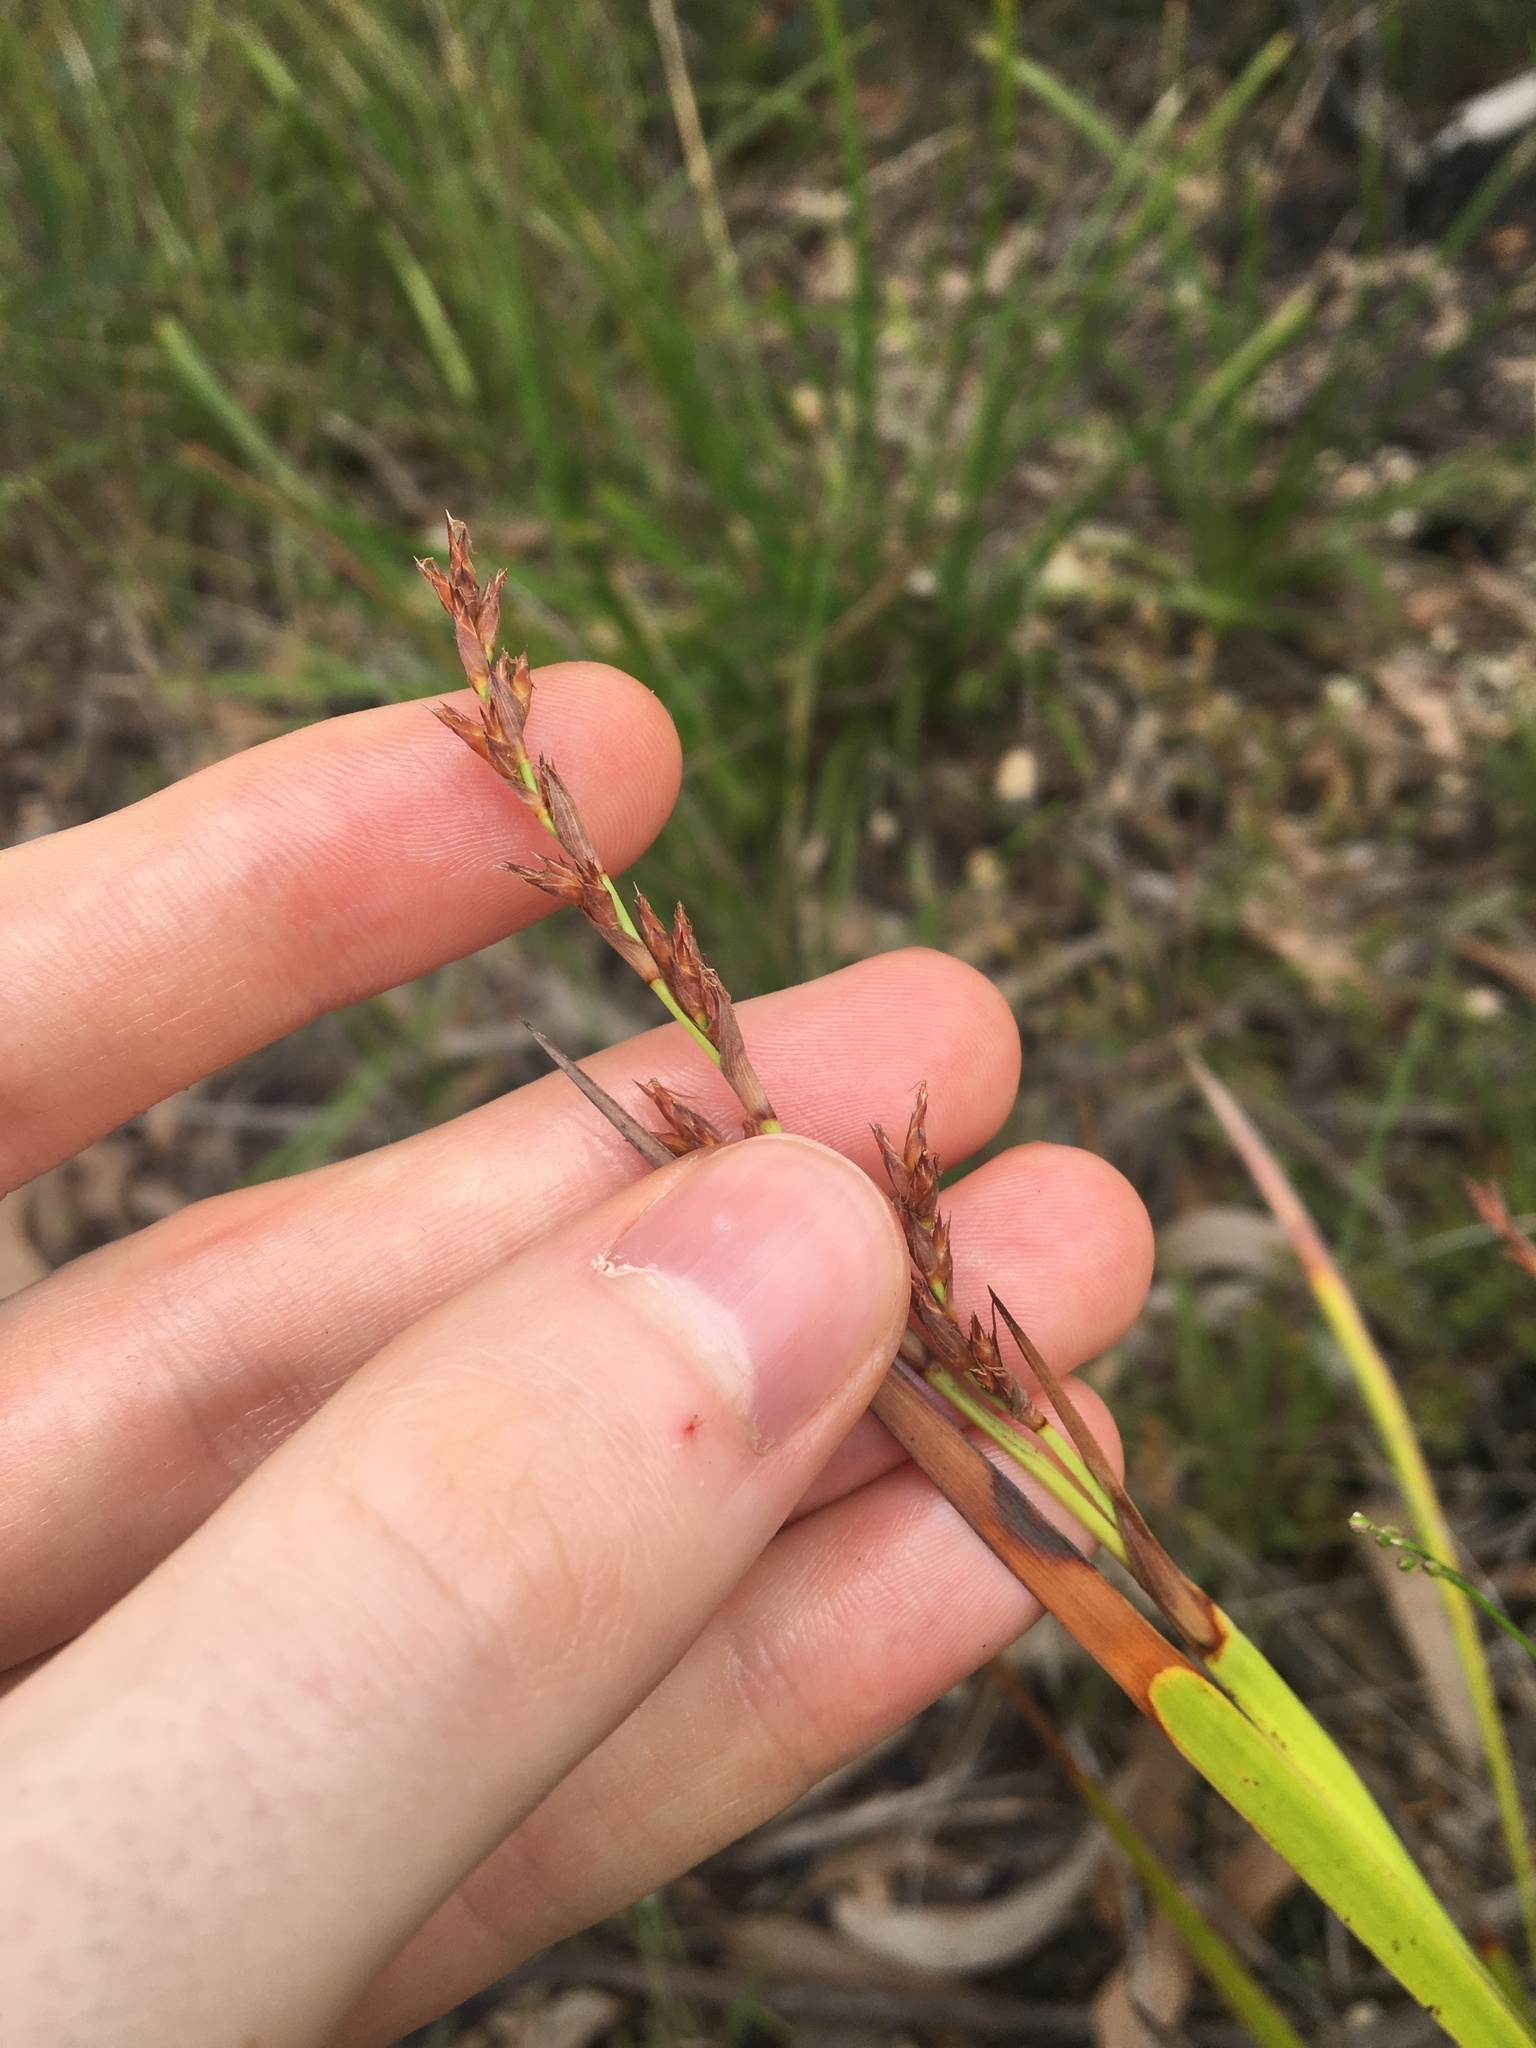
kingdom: Plantae
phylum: Tracheophyta
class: Liliopsida
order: Poales
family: Cyperaceae
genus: Lepidosperma
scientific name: Lepidosperma laterale
